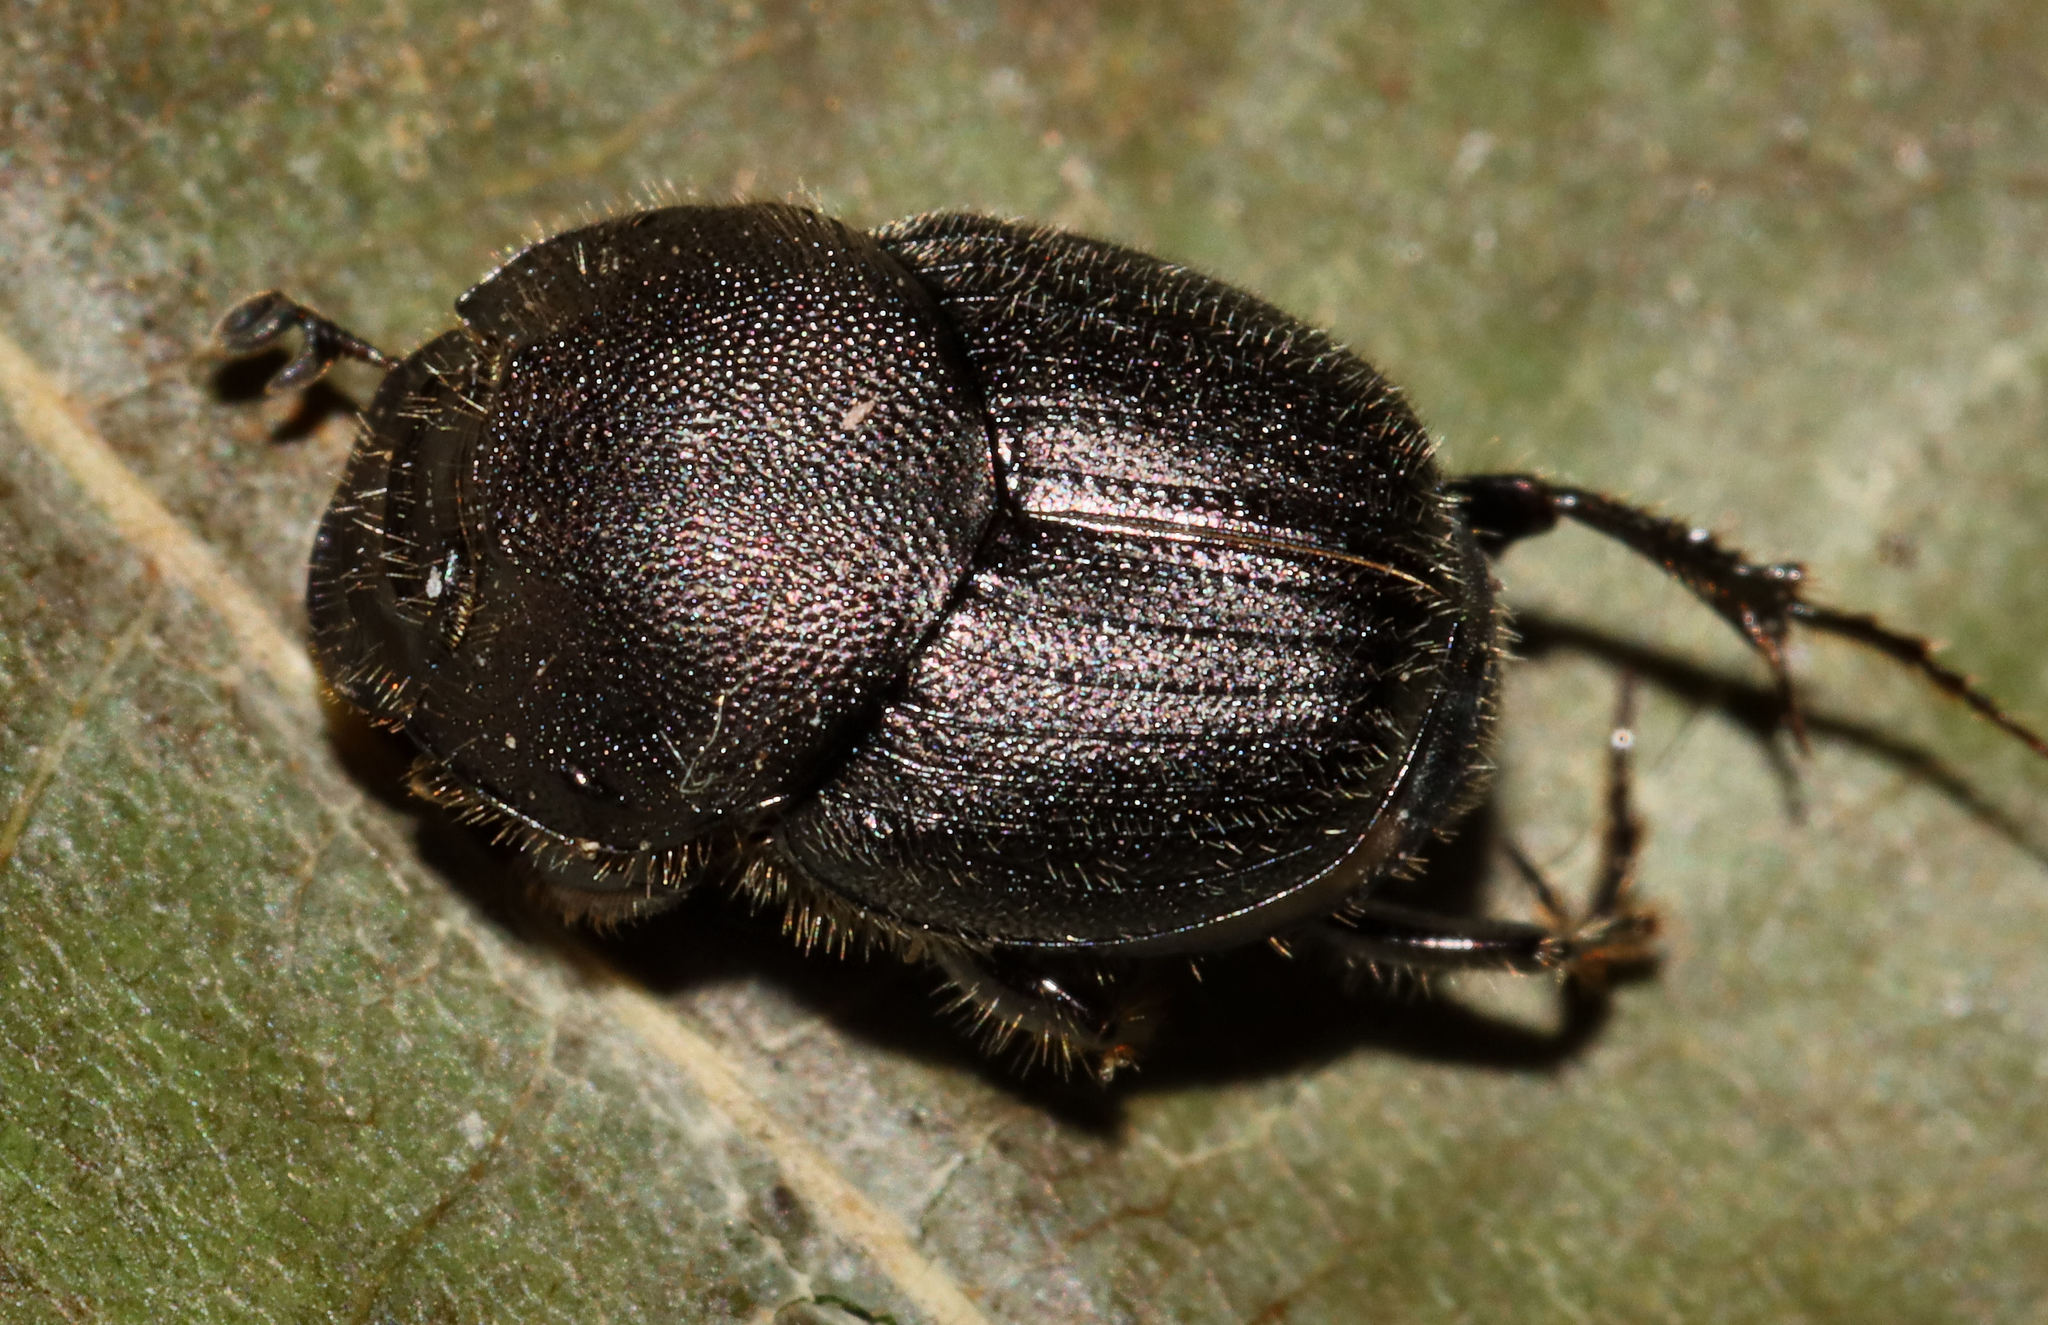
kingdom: Animalia
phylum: Arthropoda
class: Insecta
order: Coleoptera
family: Scarabaeidae
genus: Onthophagus
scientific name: Onthophagus hecate
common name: Scooped scarab
